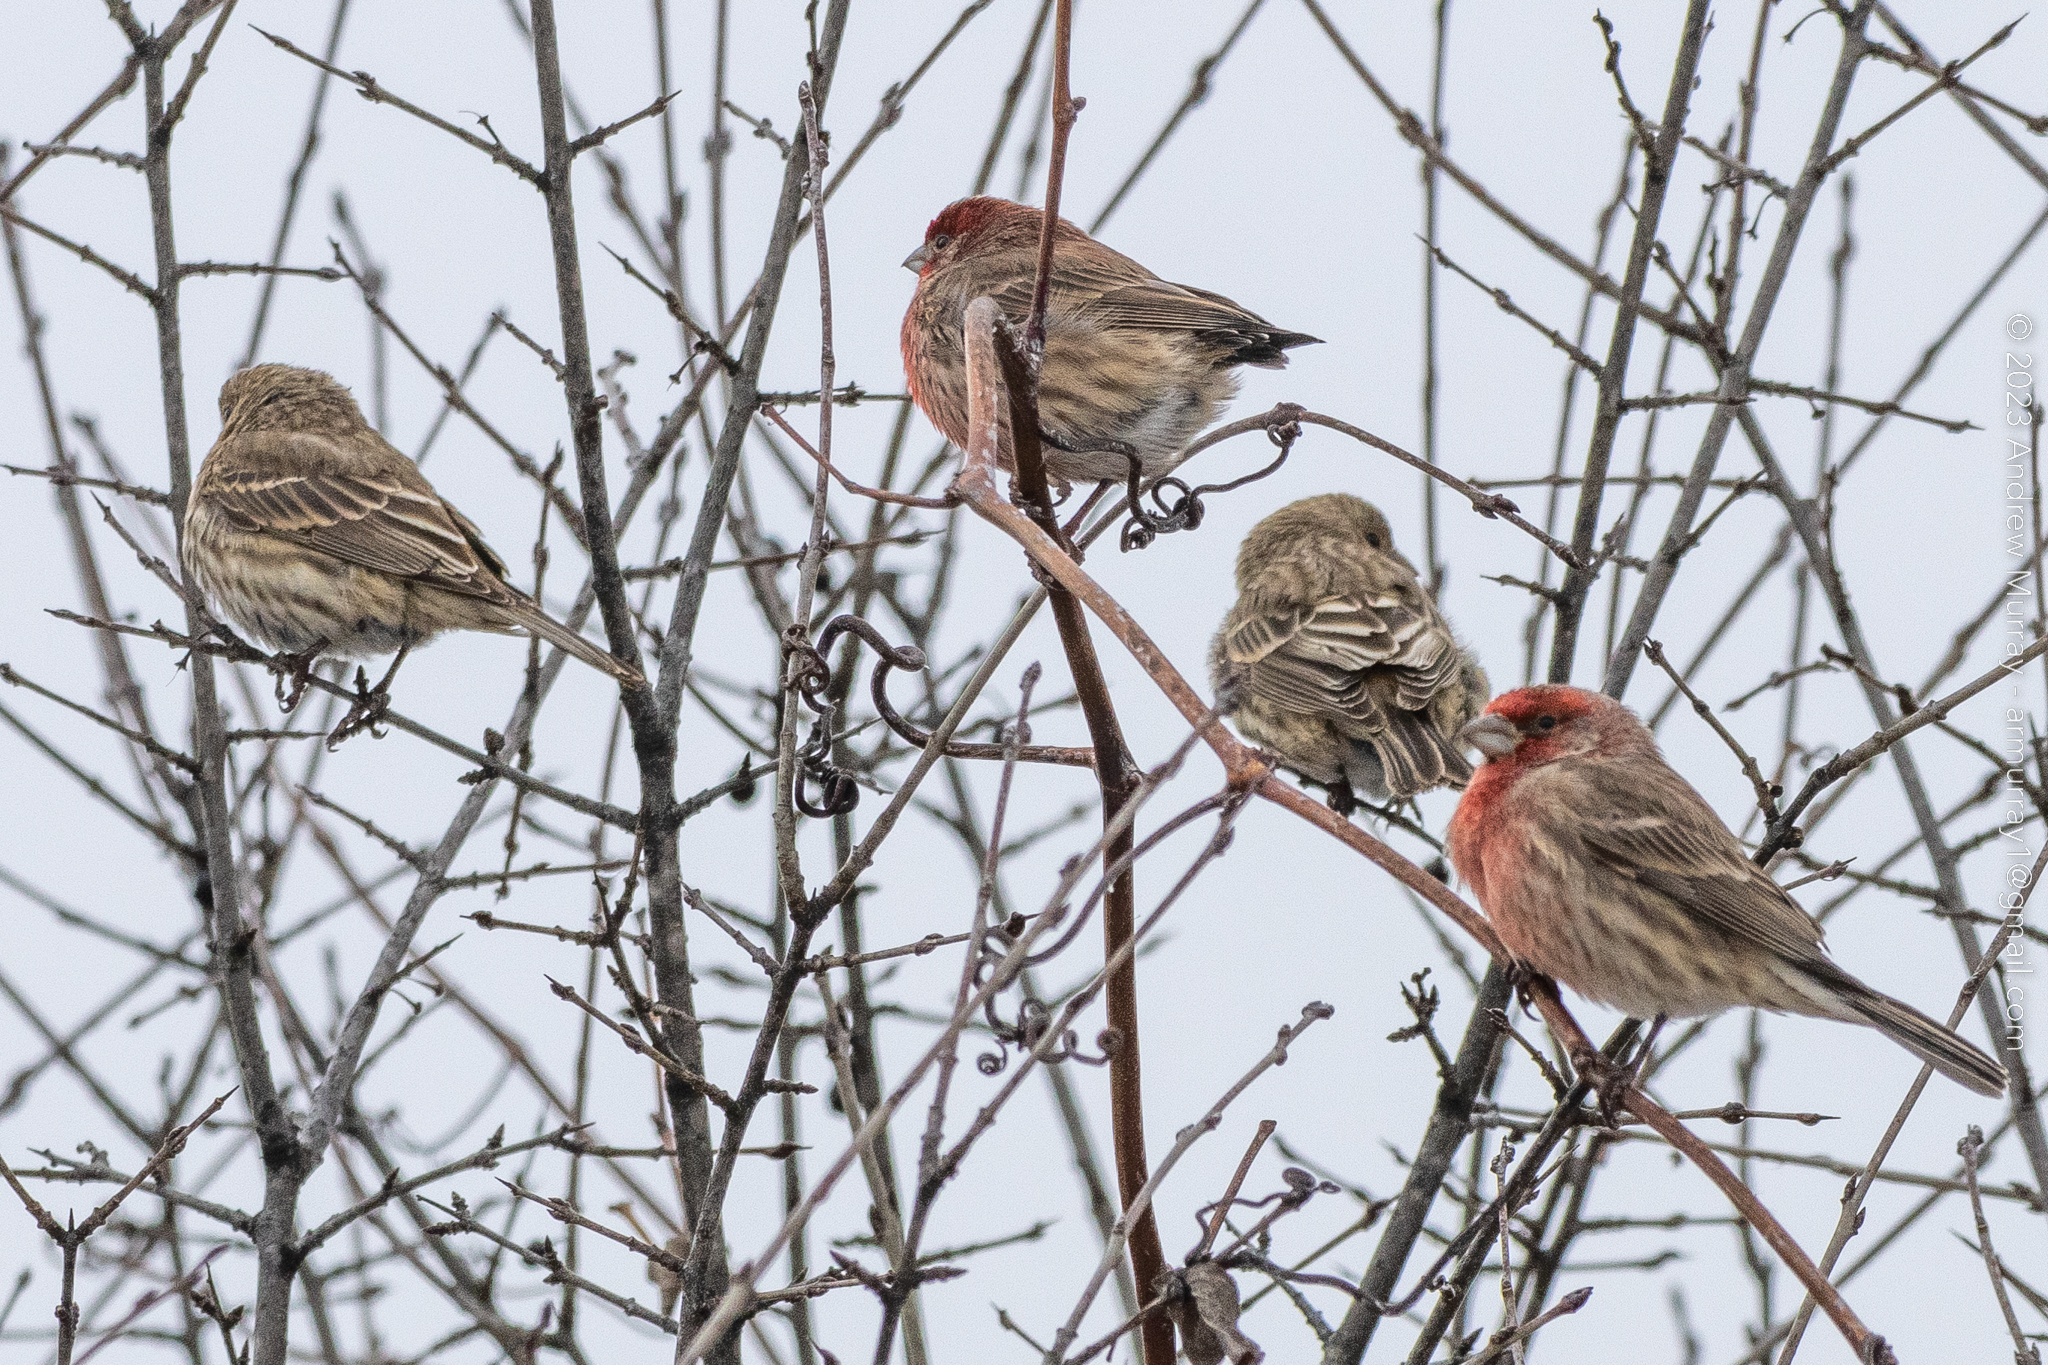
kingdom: Animalia
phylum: Chordata
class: Aves
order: Passeriformes
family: Fringillidae
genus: Haemorhous
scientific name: Haemorhous mexicanus
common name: House finch
